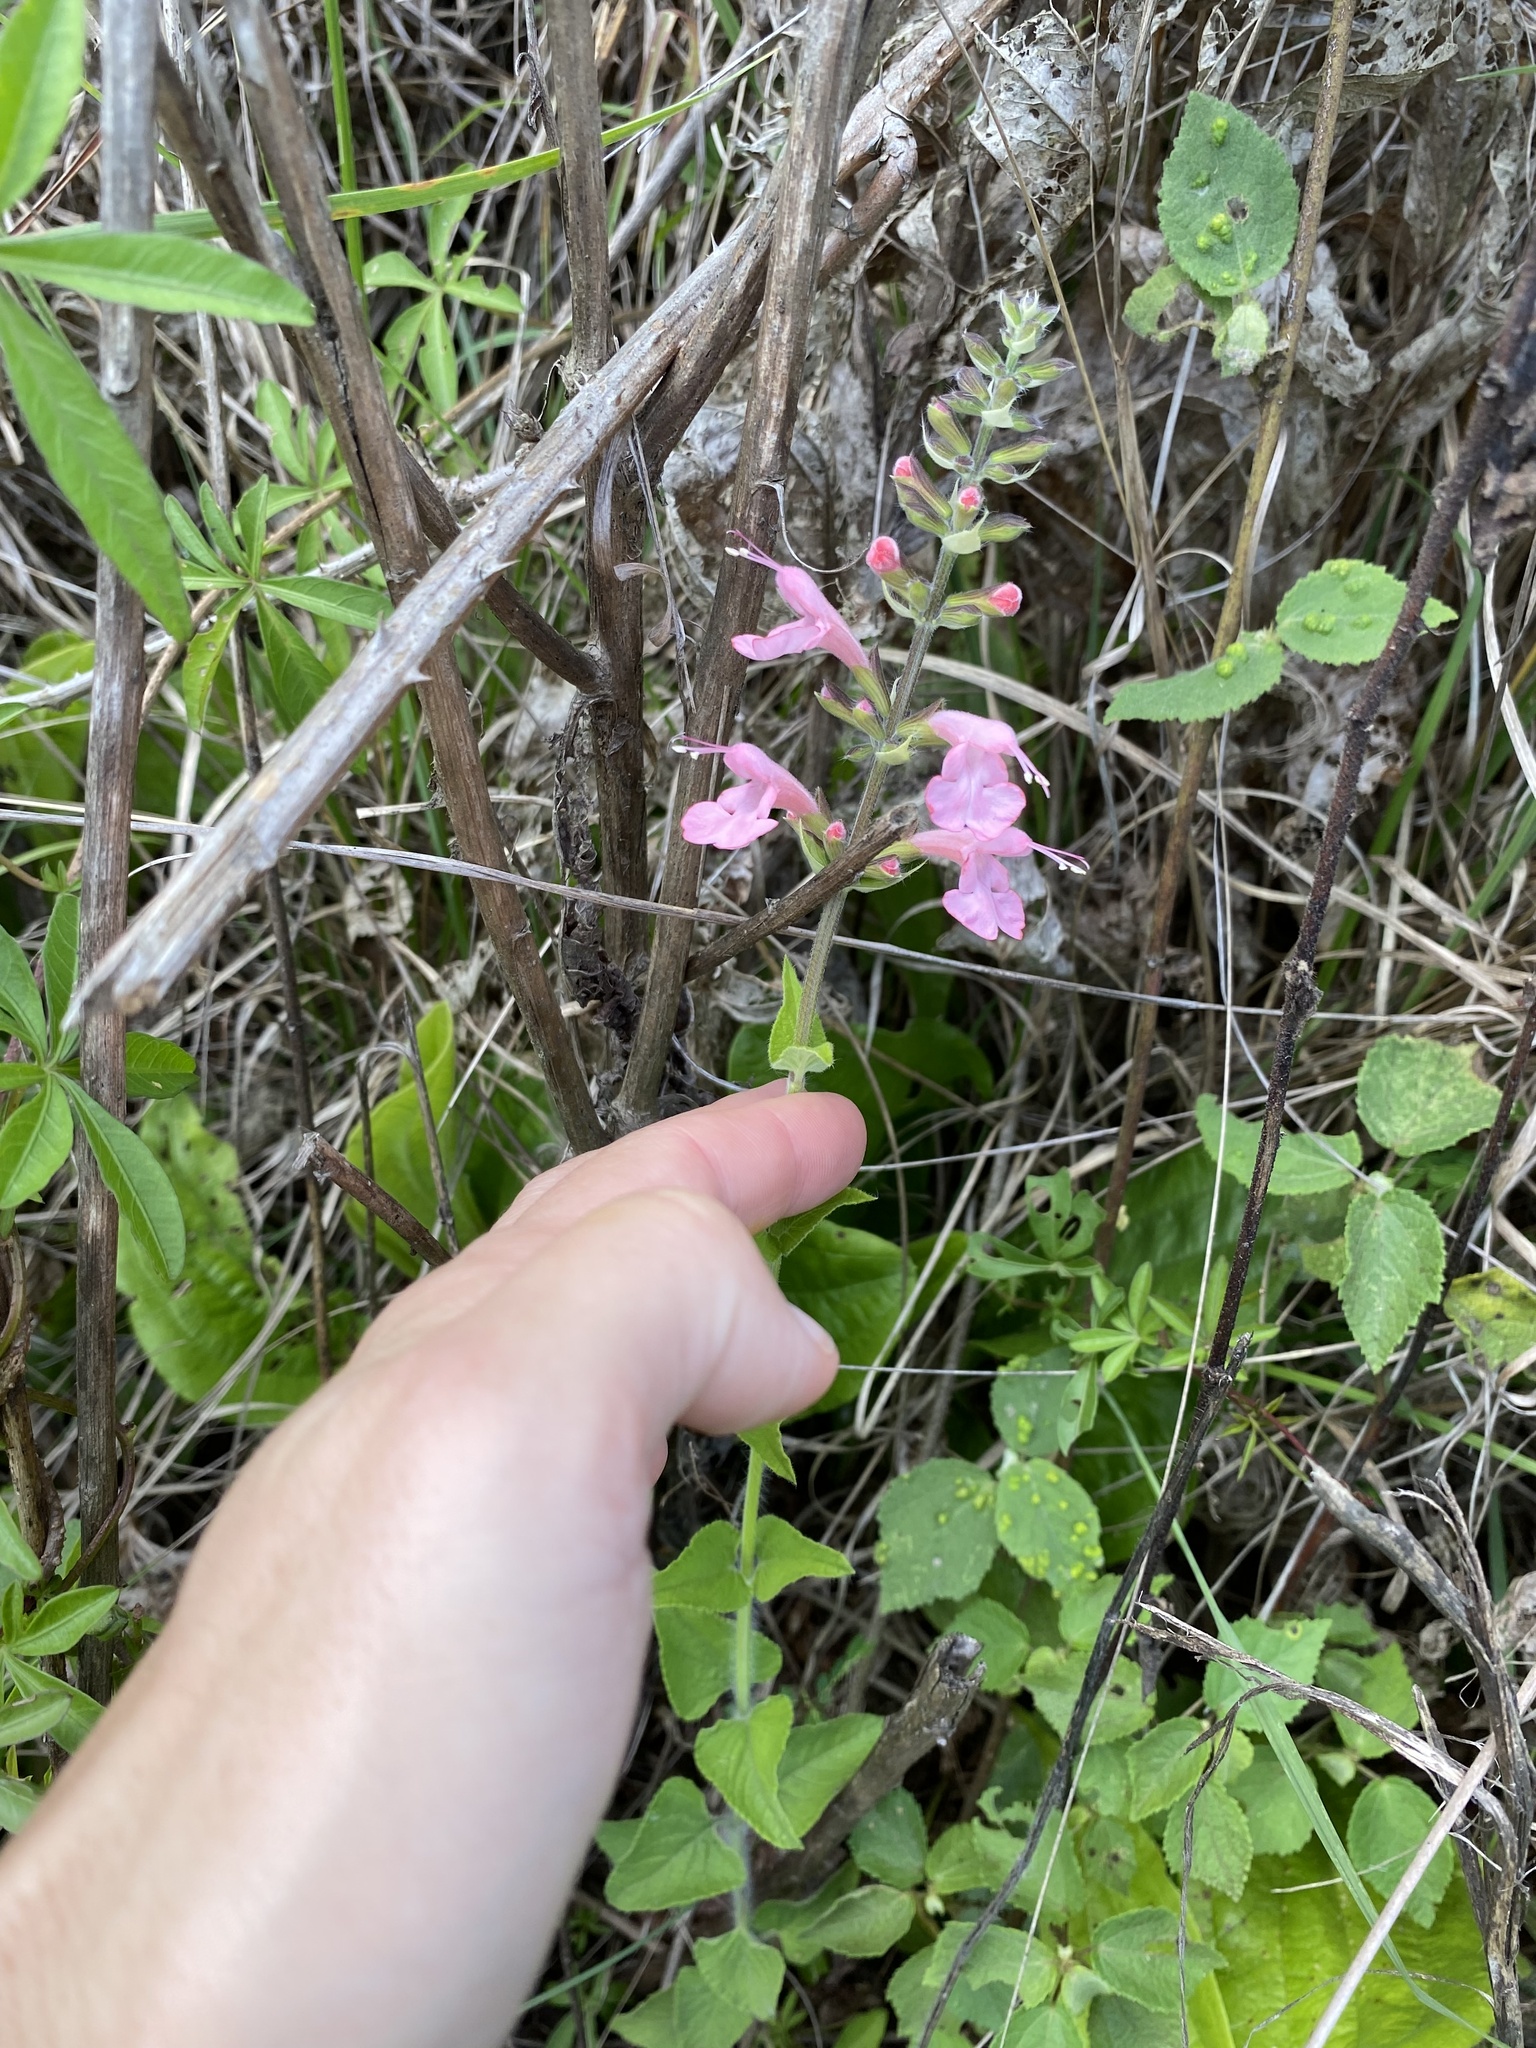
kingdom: Plantae
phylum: Tracheophyta
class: Magnoliopsida
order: Lamiales
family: Lamiaceae
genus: Salvia
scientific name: Salvia coccinea
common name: Blood sage
